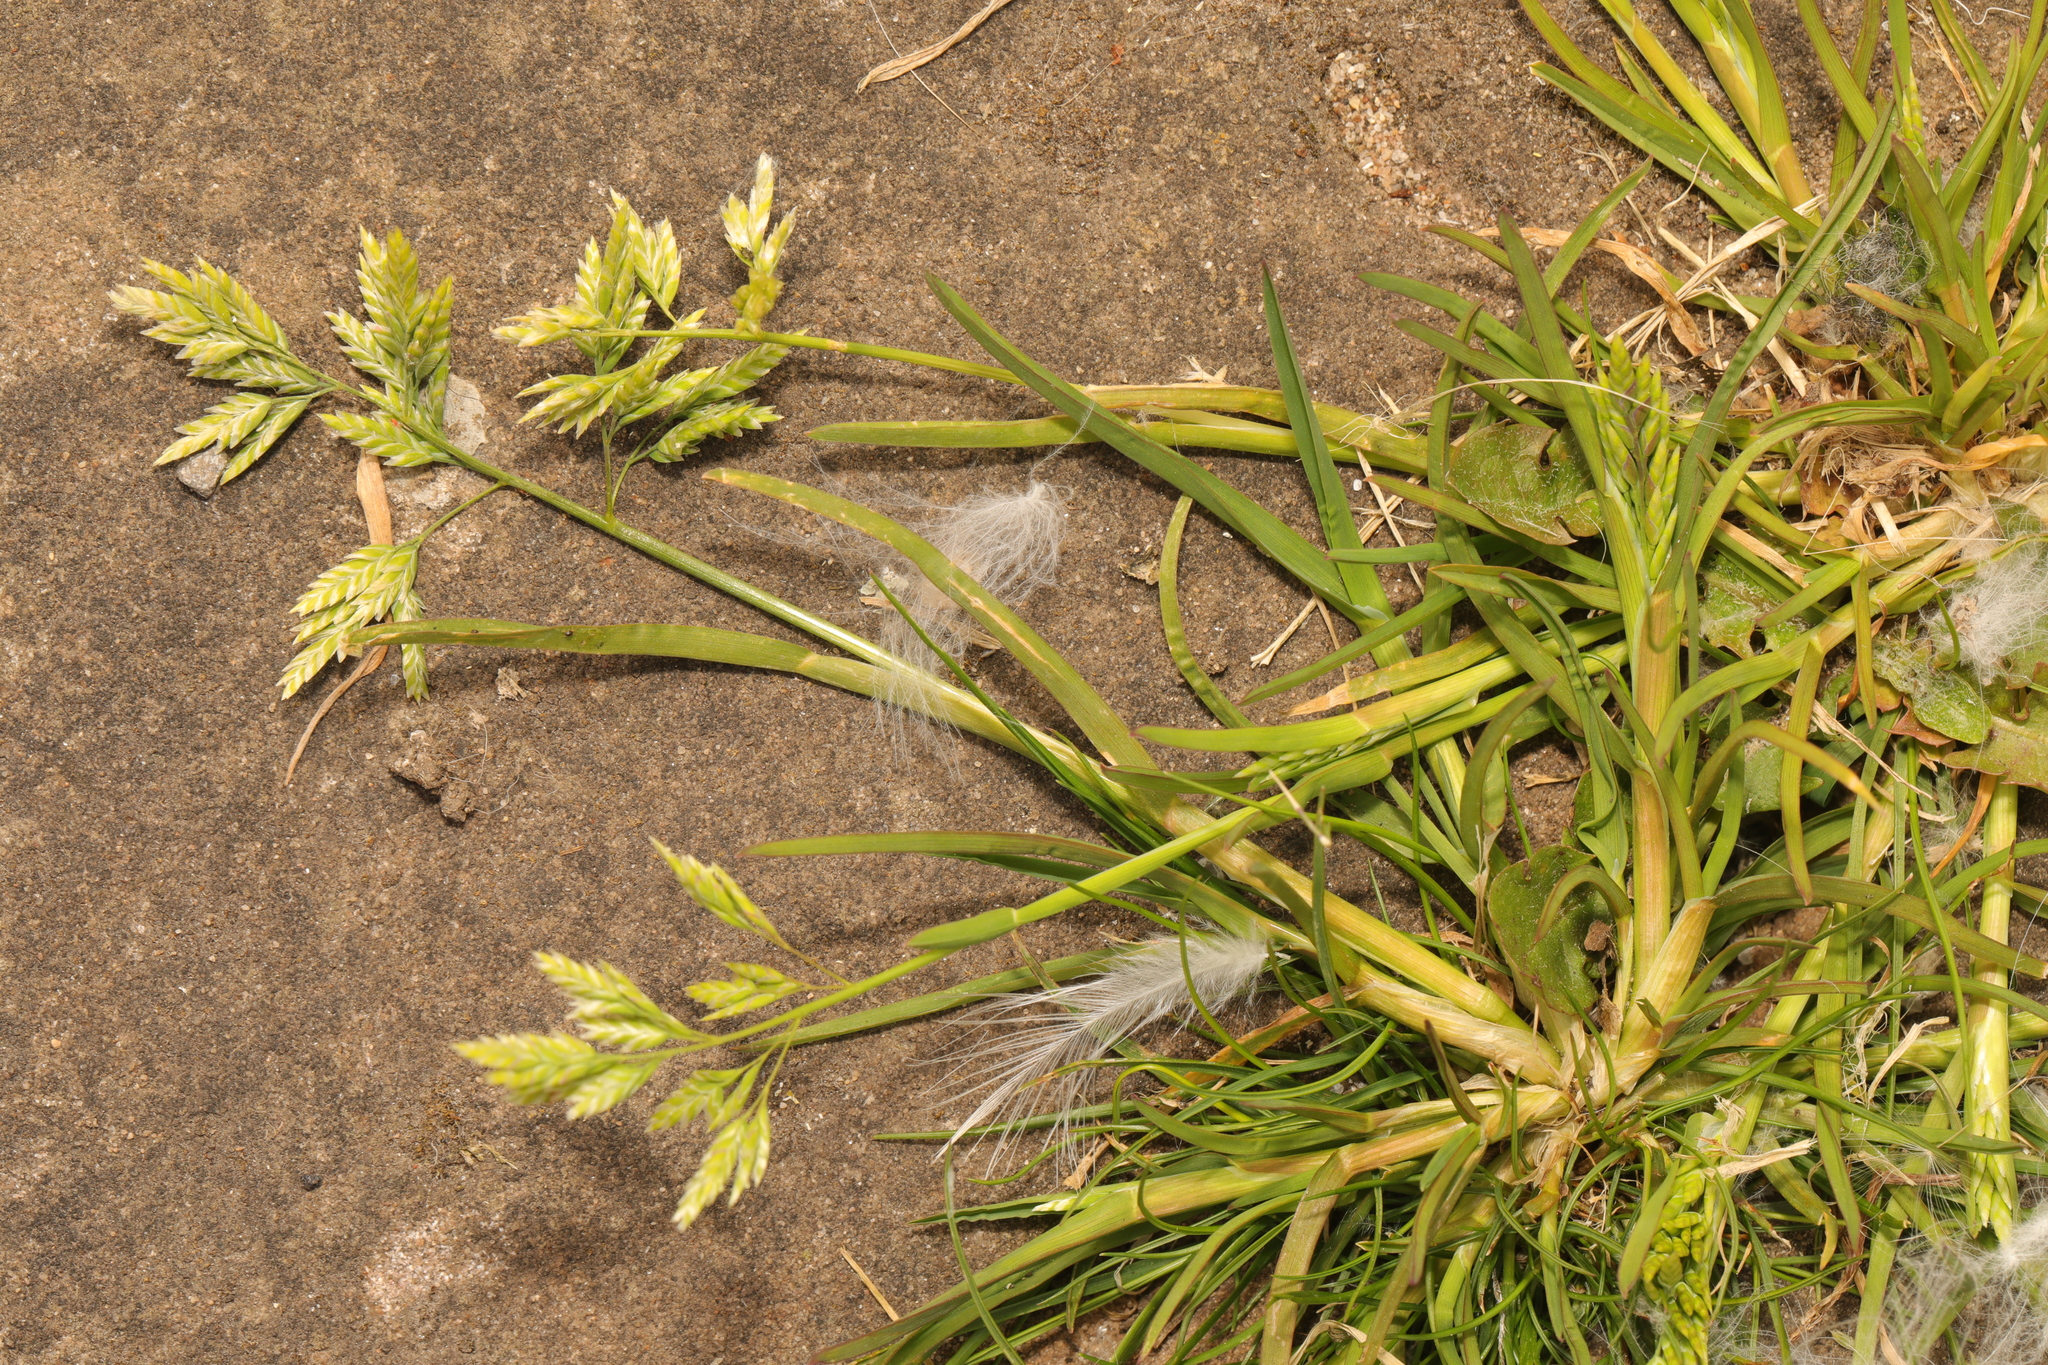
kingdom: Plantae
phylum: Tracheophyta
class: Liliopsida
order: Poales
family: Poaceae
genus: Poa
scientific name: Poa annua
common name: Annual bluegrass
